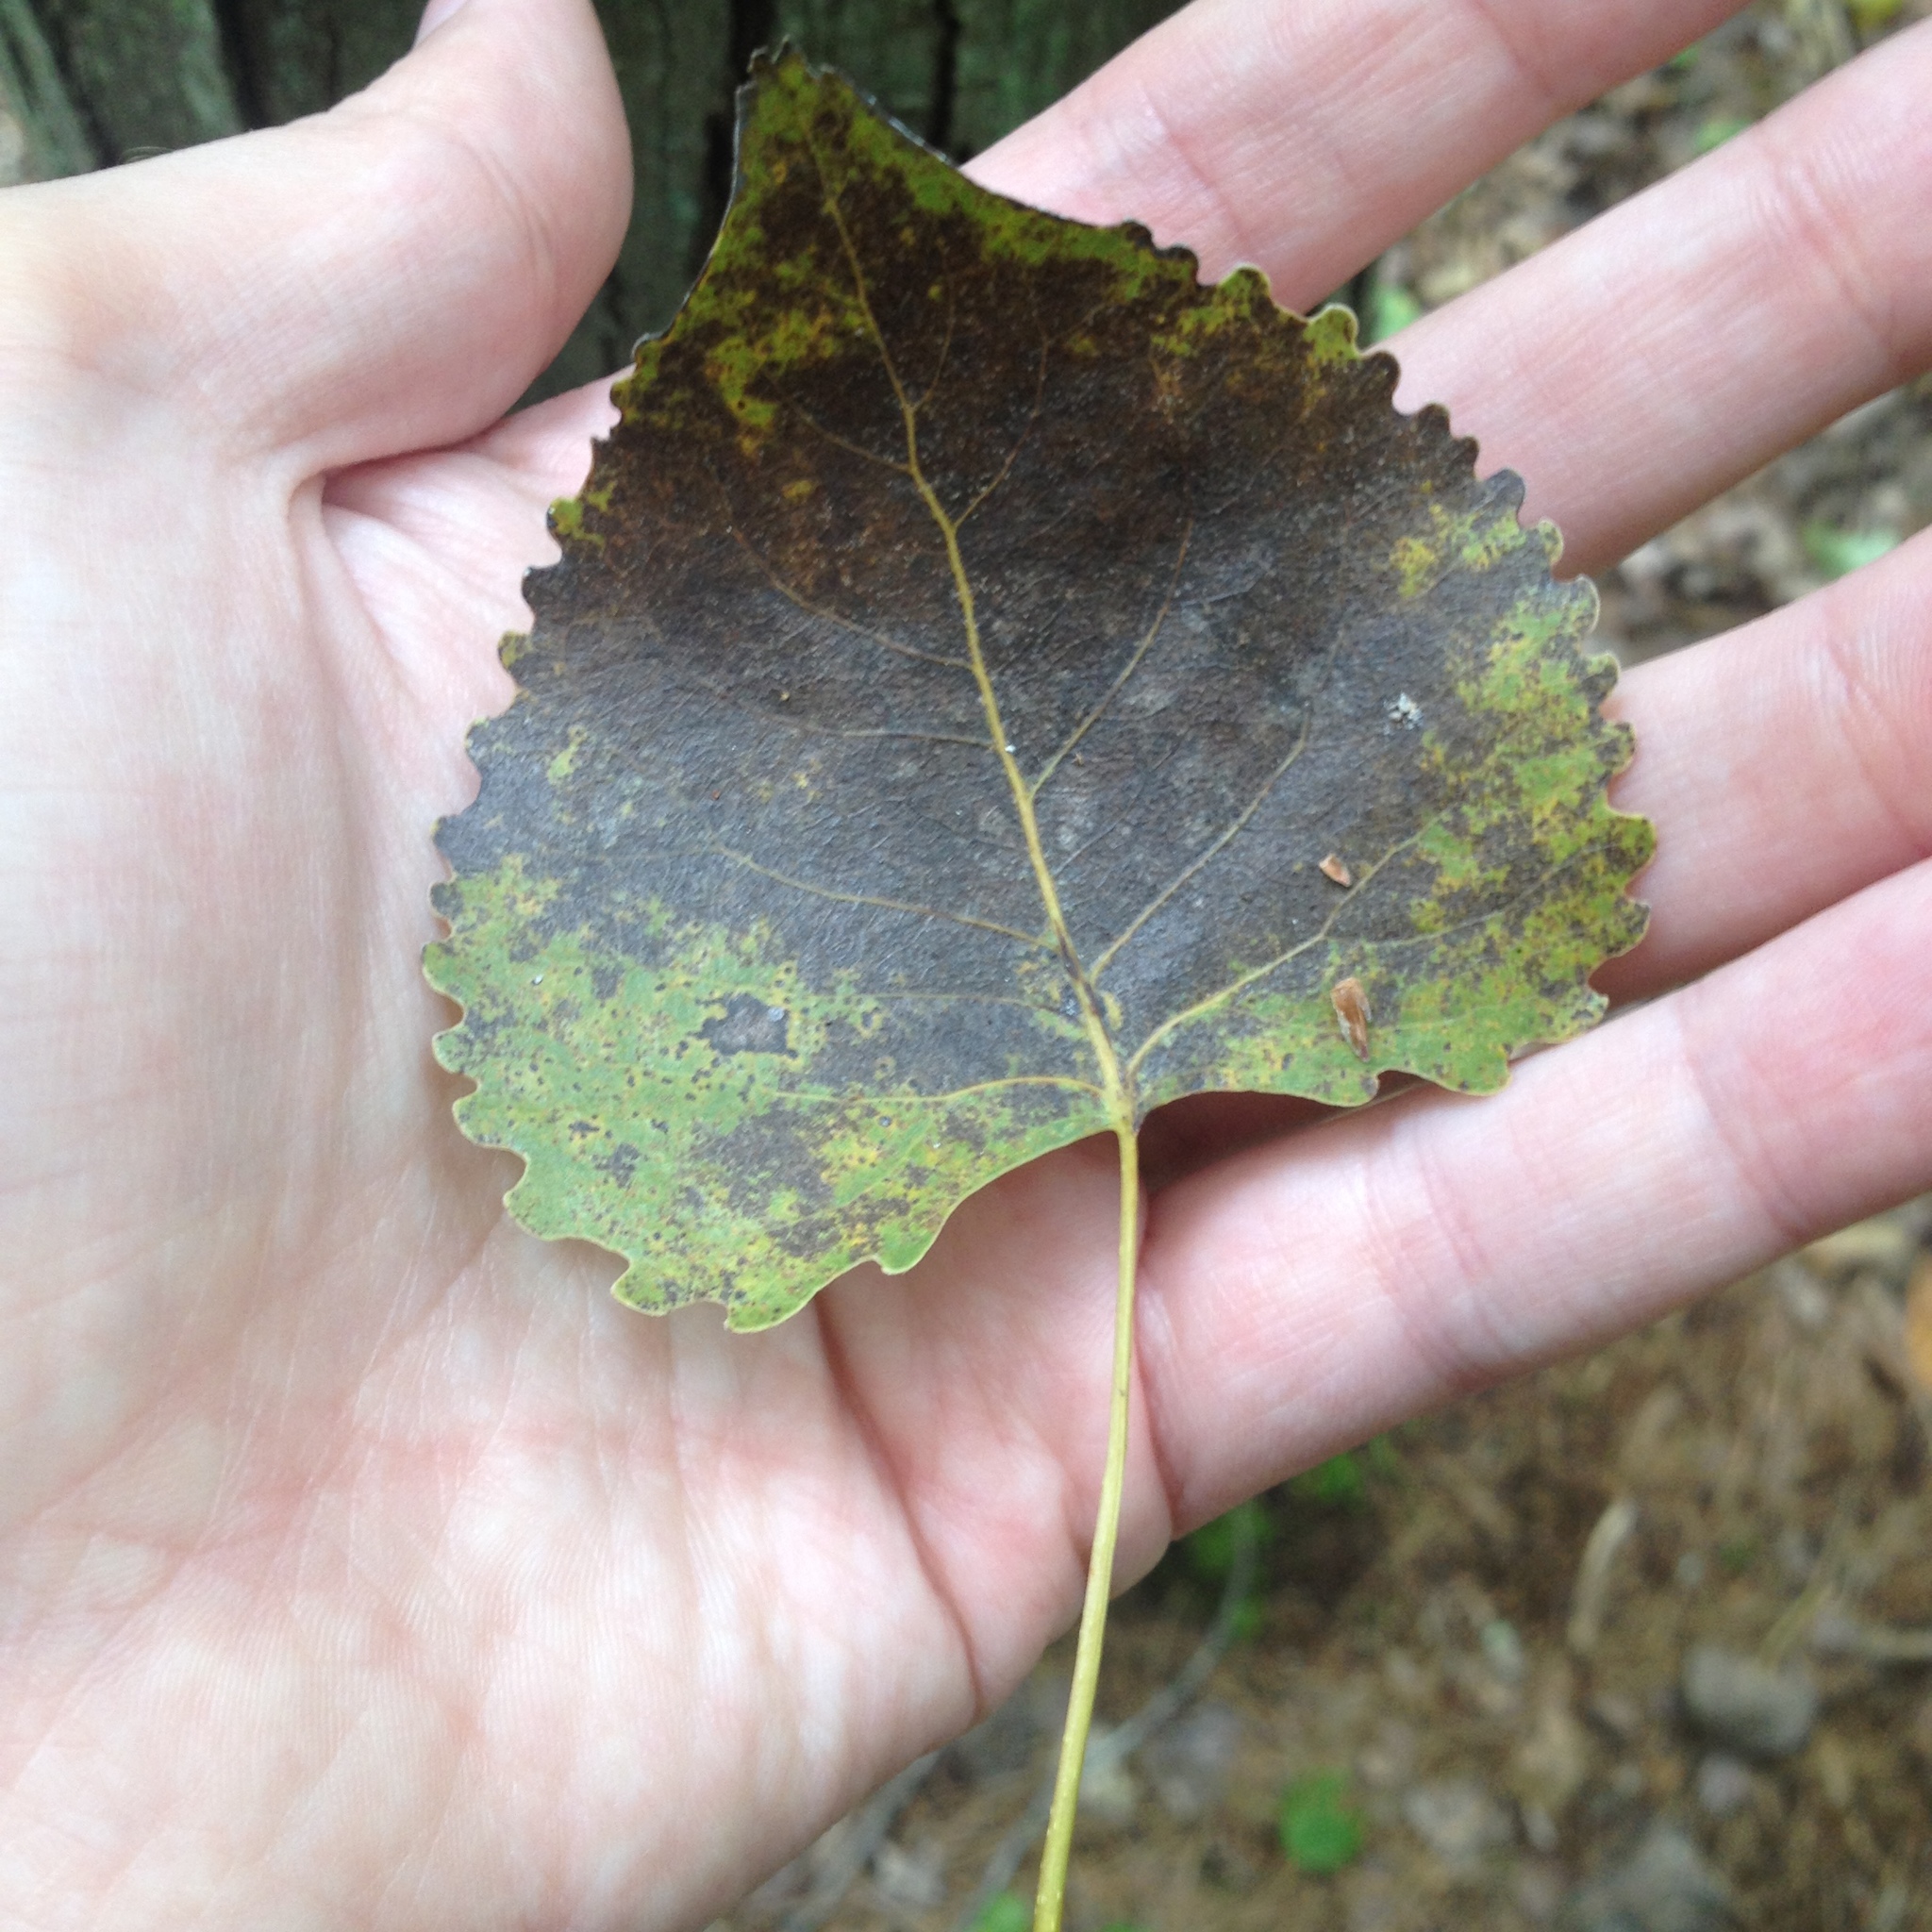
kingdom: Plantae
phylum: Tracheophyta
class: Magnoliopsida
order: Malpighiales
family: Salicaceae
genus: Populus
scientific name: Populus deltoides
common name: Eastern cottonwood
